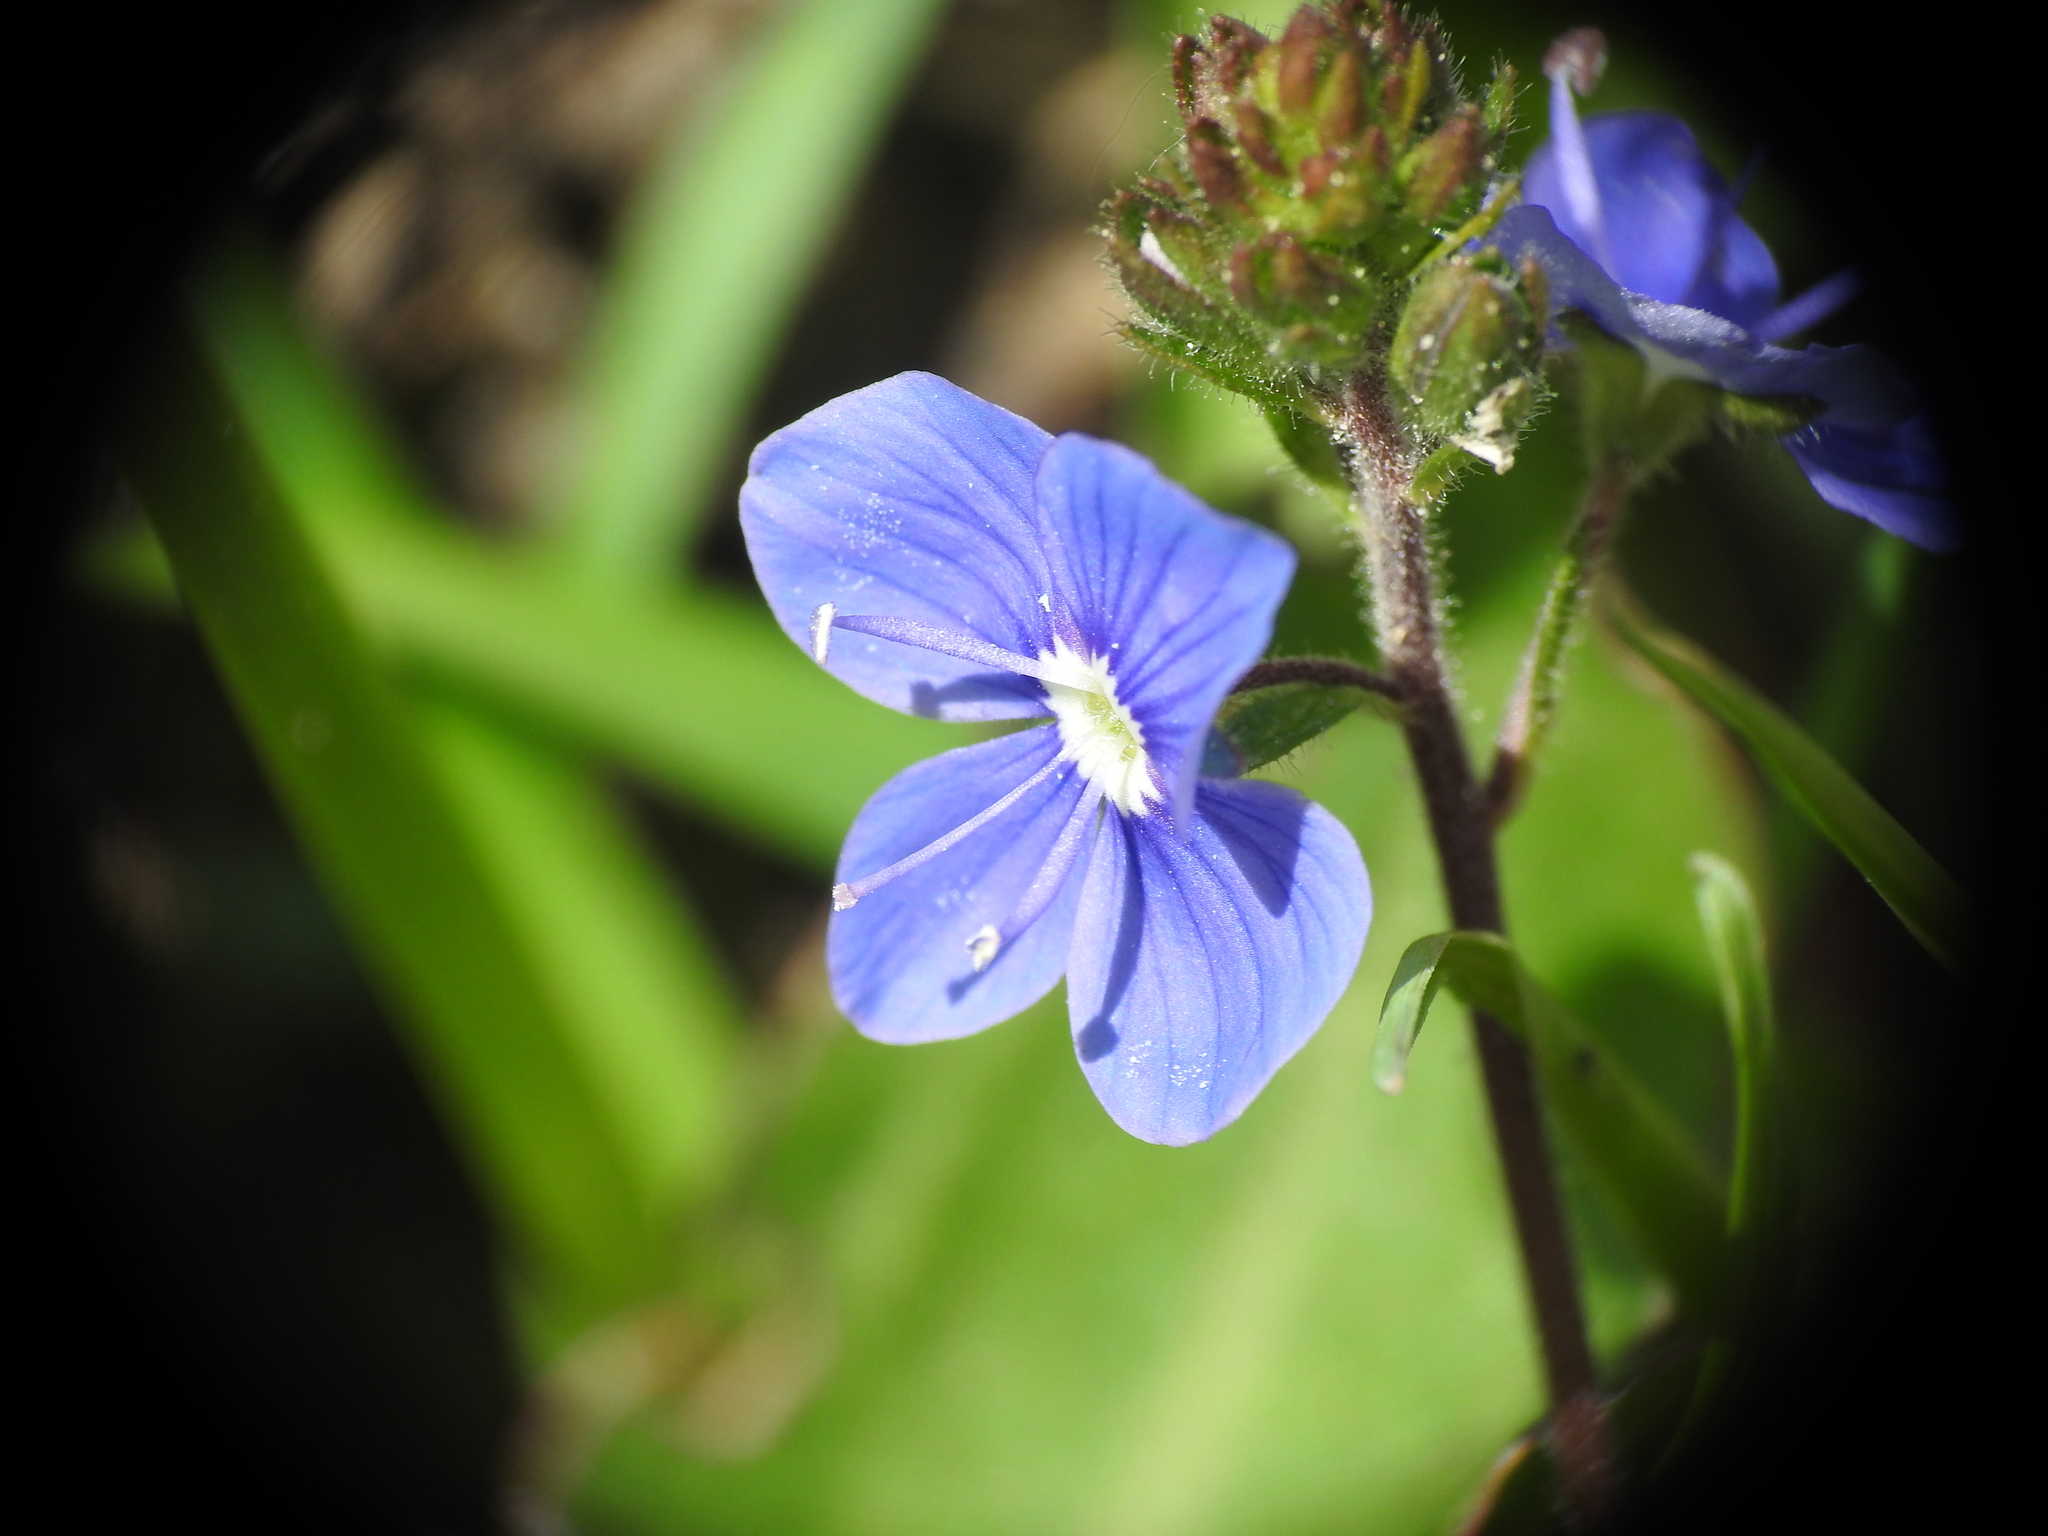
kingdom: Plantae
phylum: Tracheophyta
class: Magnoliopsida
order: Lamiales
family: Plantaginaceae
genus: Veronica
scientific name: Veronica chamaedrys
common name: Germander speedwell
